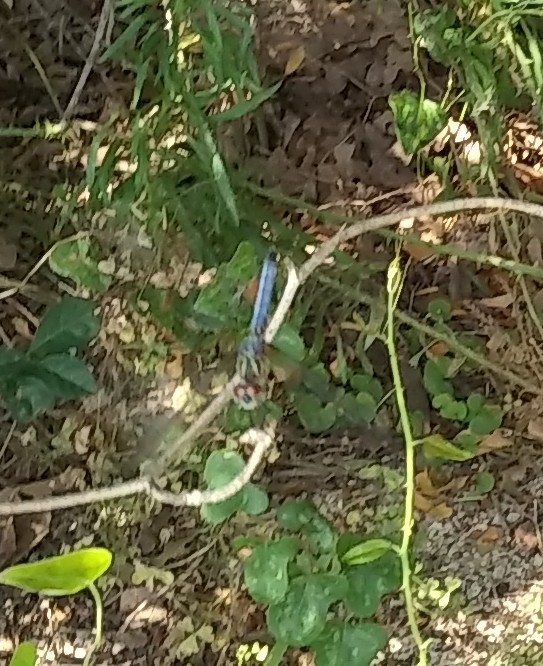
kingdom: Animalia
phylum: Arthropoda
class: Insecta
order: Odonata
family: Libellulidae
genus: Pachydiplax
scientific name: Pachydiplax longipennis
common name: Blue dasher
